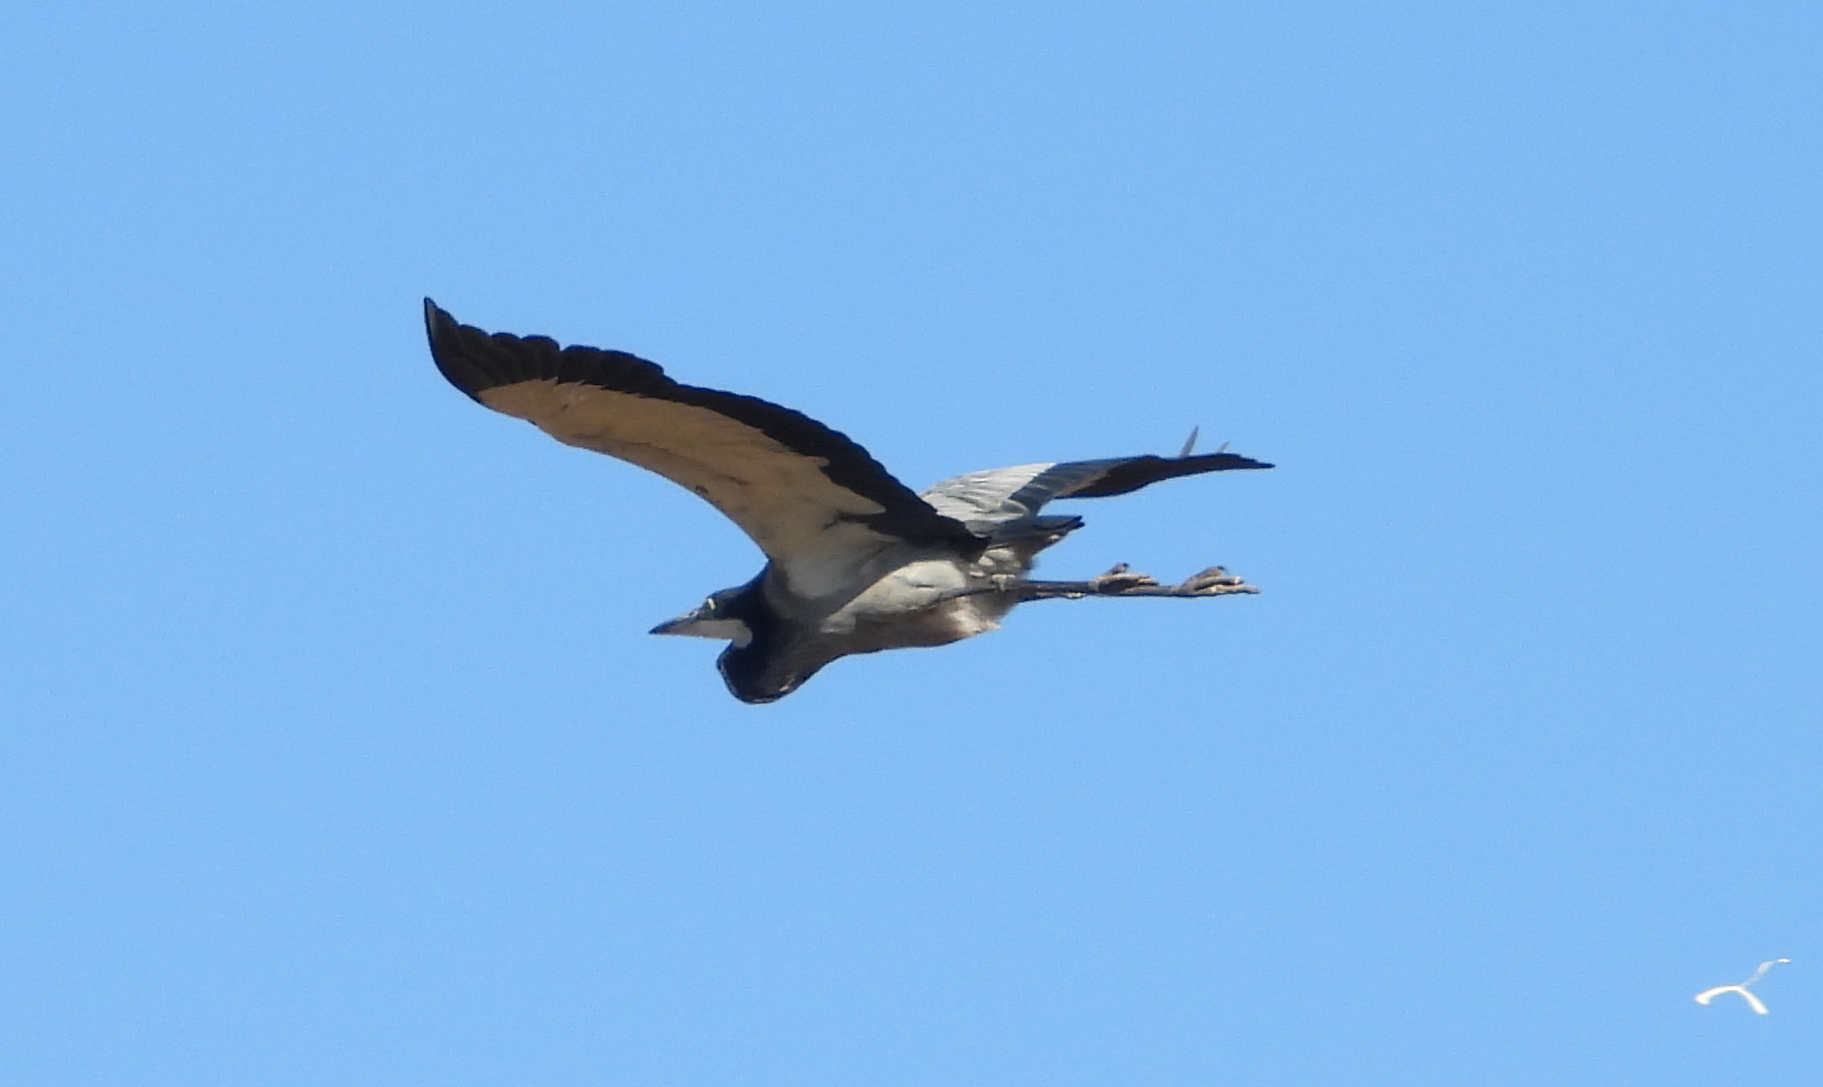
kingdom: Animalia
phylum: Chordata
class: Aves
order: Pelecaniformes
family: Ardeidae
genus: Ardea
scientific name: Ardea melanocephala
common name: Black-headed heron
